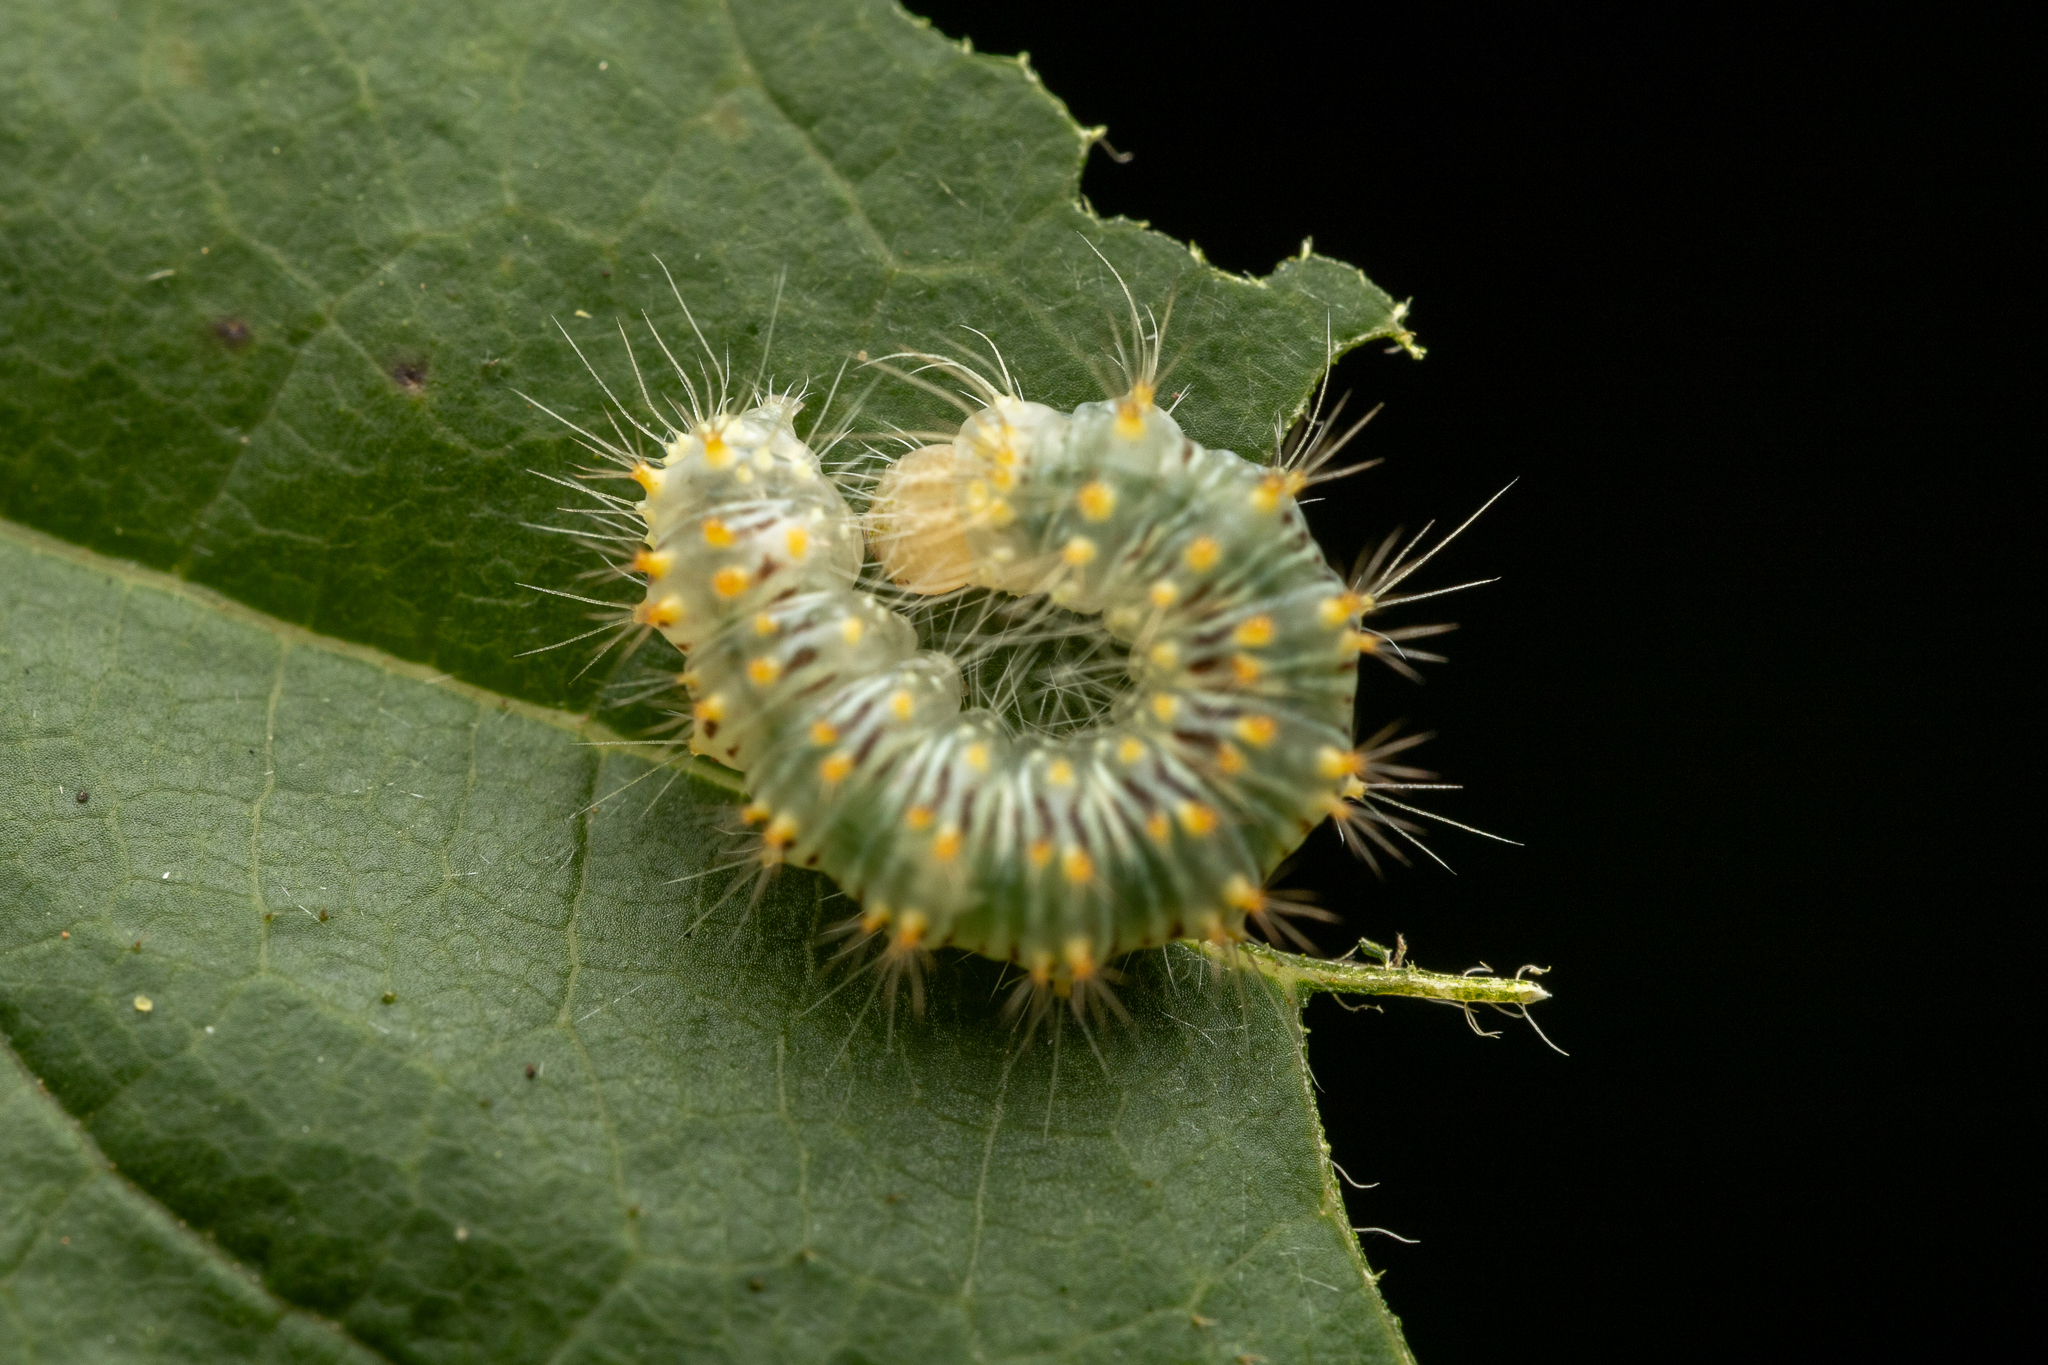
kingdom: Animalia
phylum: Arthropoda
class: Insecta
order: Lepidoptera
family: Noctuidae
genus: Acronicta
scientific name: Acronicta retardata
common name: Maple dagger
